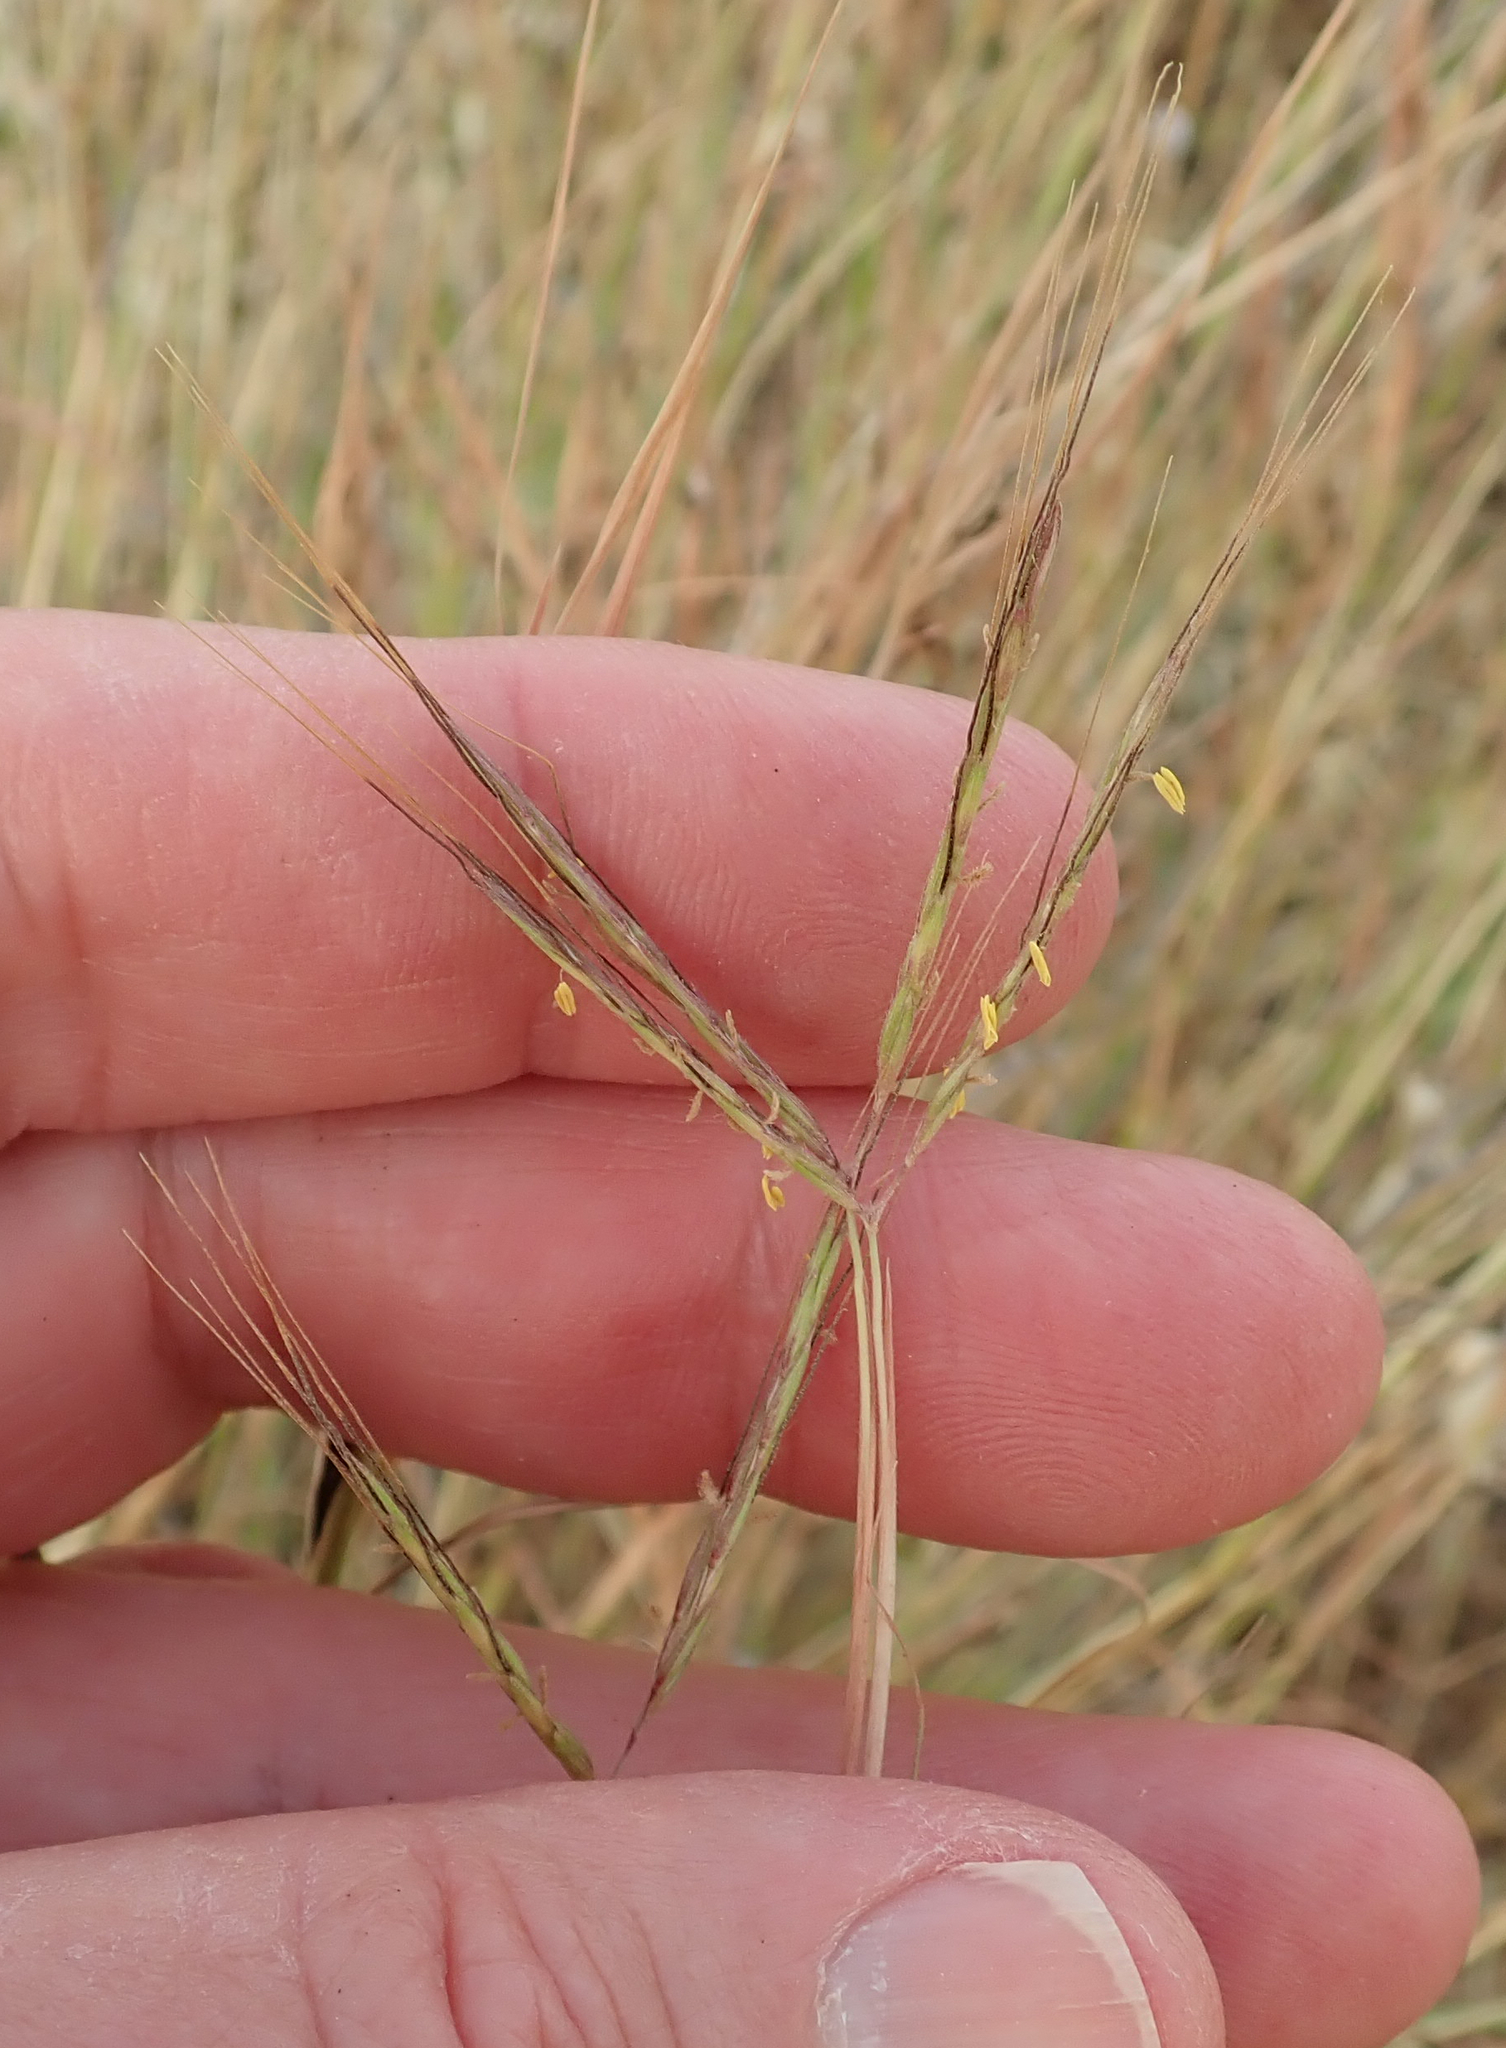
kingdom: Plantae
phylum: Tracheophyta
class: Liliopsida
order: Poales
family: Poaceae
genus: Hyparrhenia
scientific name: Hyparrhenia hirta
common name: Thatching grass
